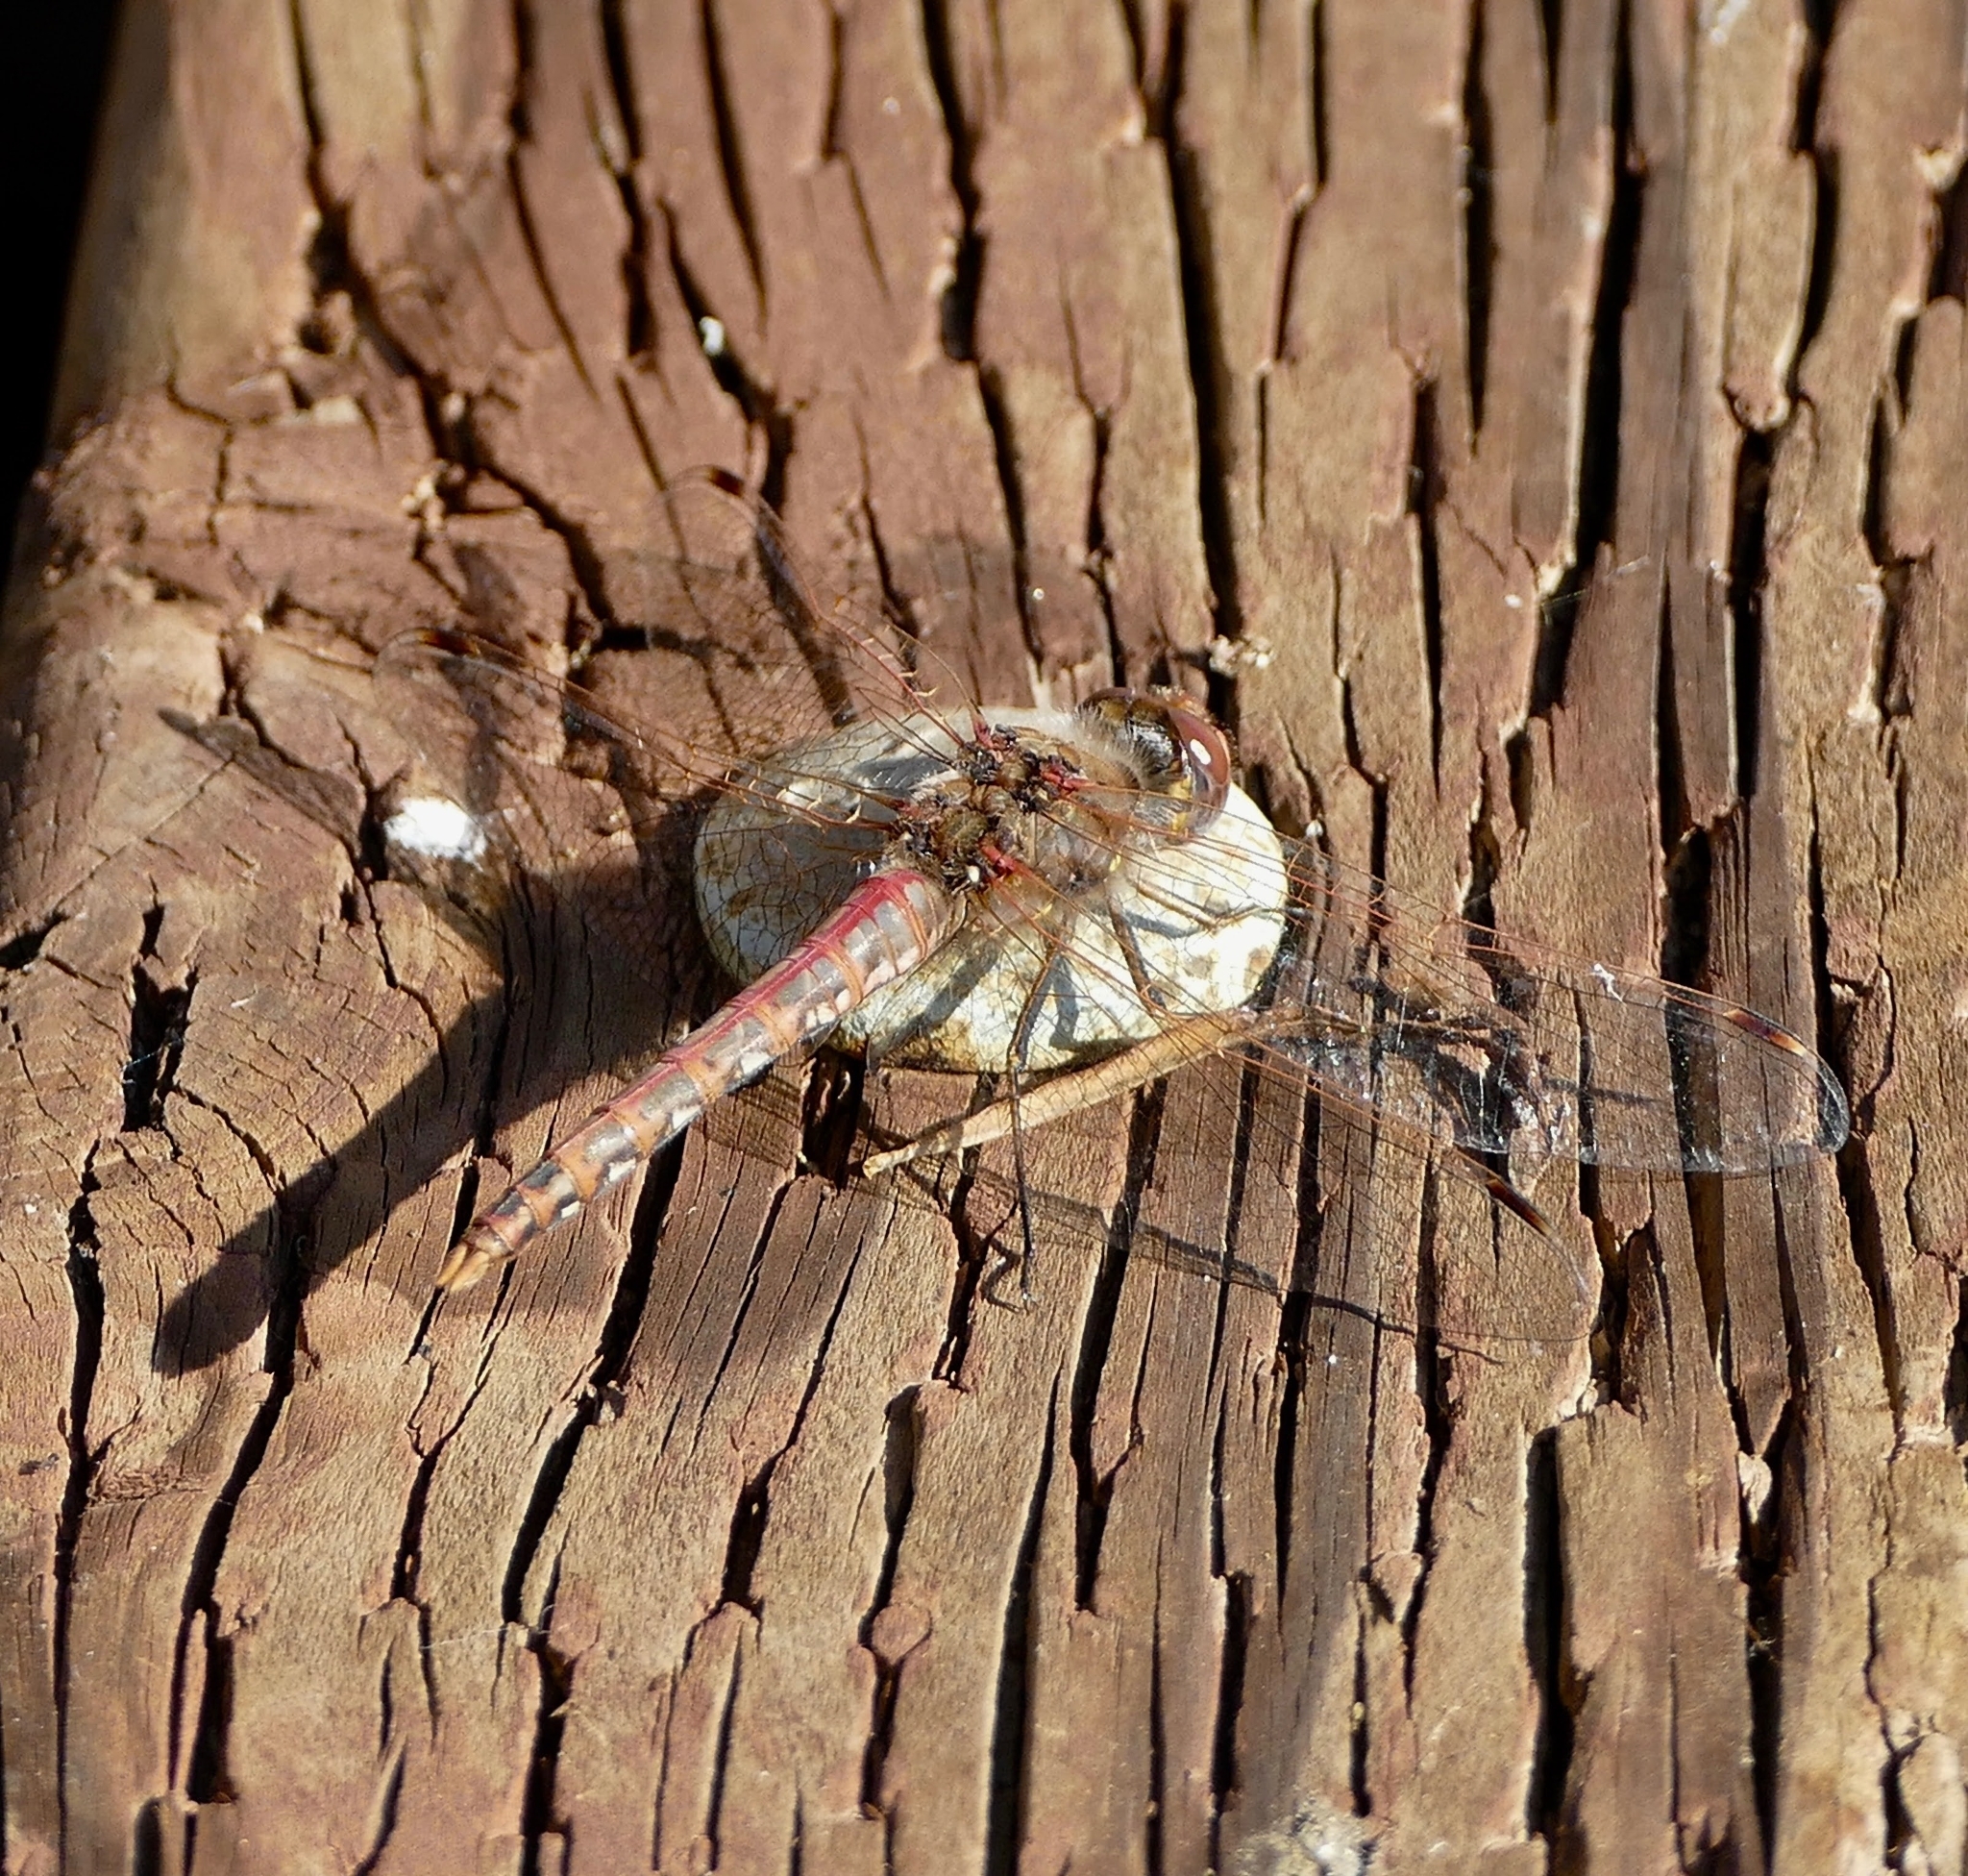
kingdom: Animalia
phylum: Arthropoda
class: Insecta
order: Odonata
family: Libellulidae
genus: Sympetrum
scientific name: Sympetrum corruptum
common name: Variegated meadowhawk
